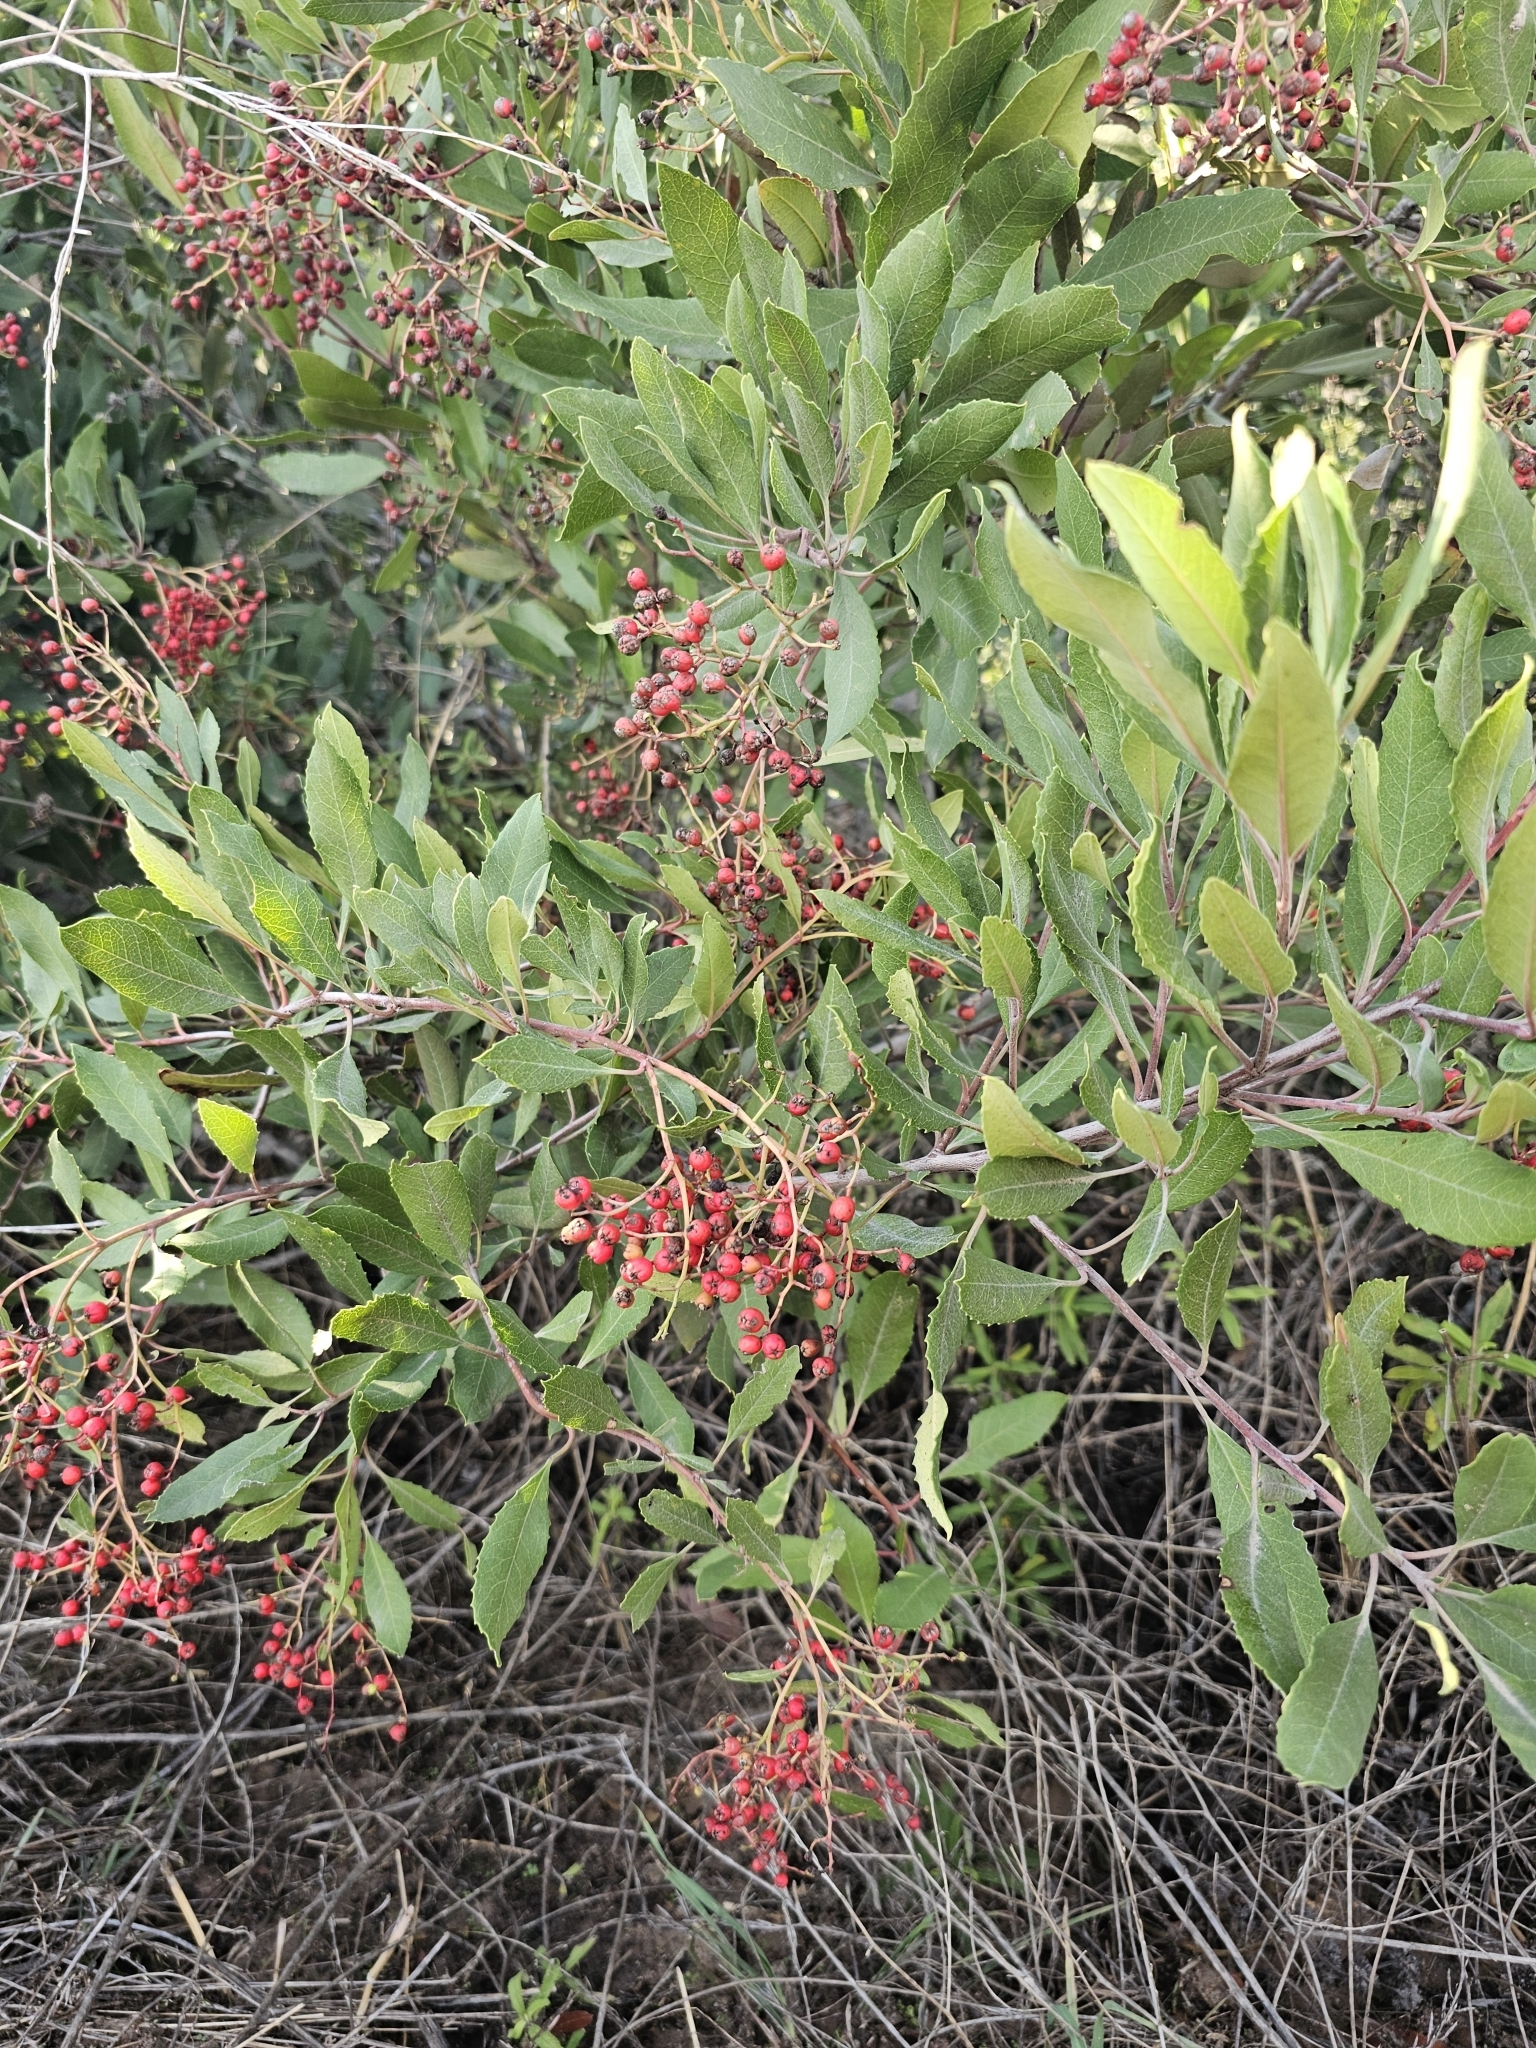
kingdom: Plantae
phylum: Tracheophyta
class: Magnoliopsida
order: Rosales
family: Rosaceae
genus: Heteromeles
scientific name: Heteromeles arbutifolia
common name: California-holly
